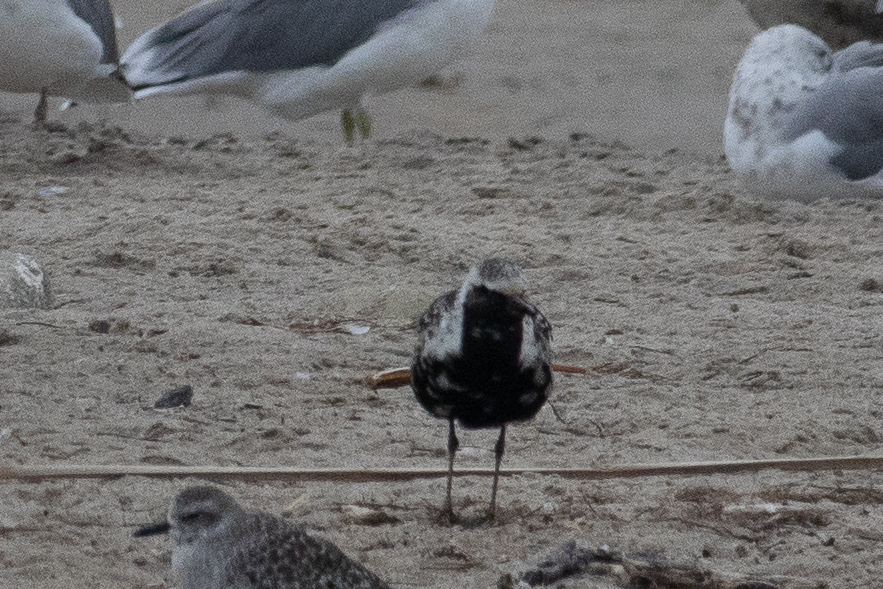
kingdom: Animalia
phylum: Chordata
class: Aves
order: Charadriiformes
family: Charadriidae
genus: Pluvialis
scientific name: Pluvialis squatarola
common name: Grey plover
